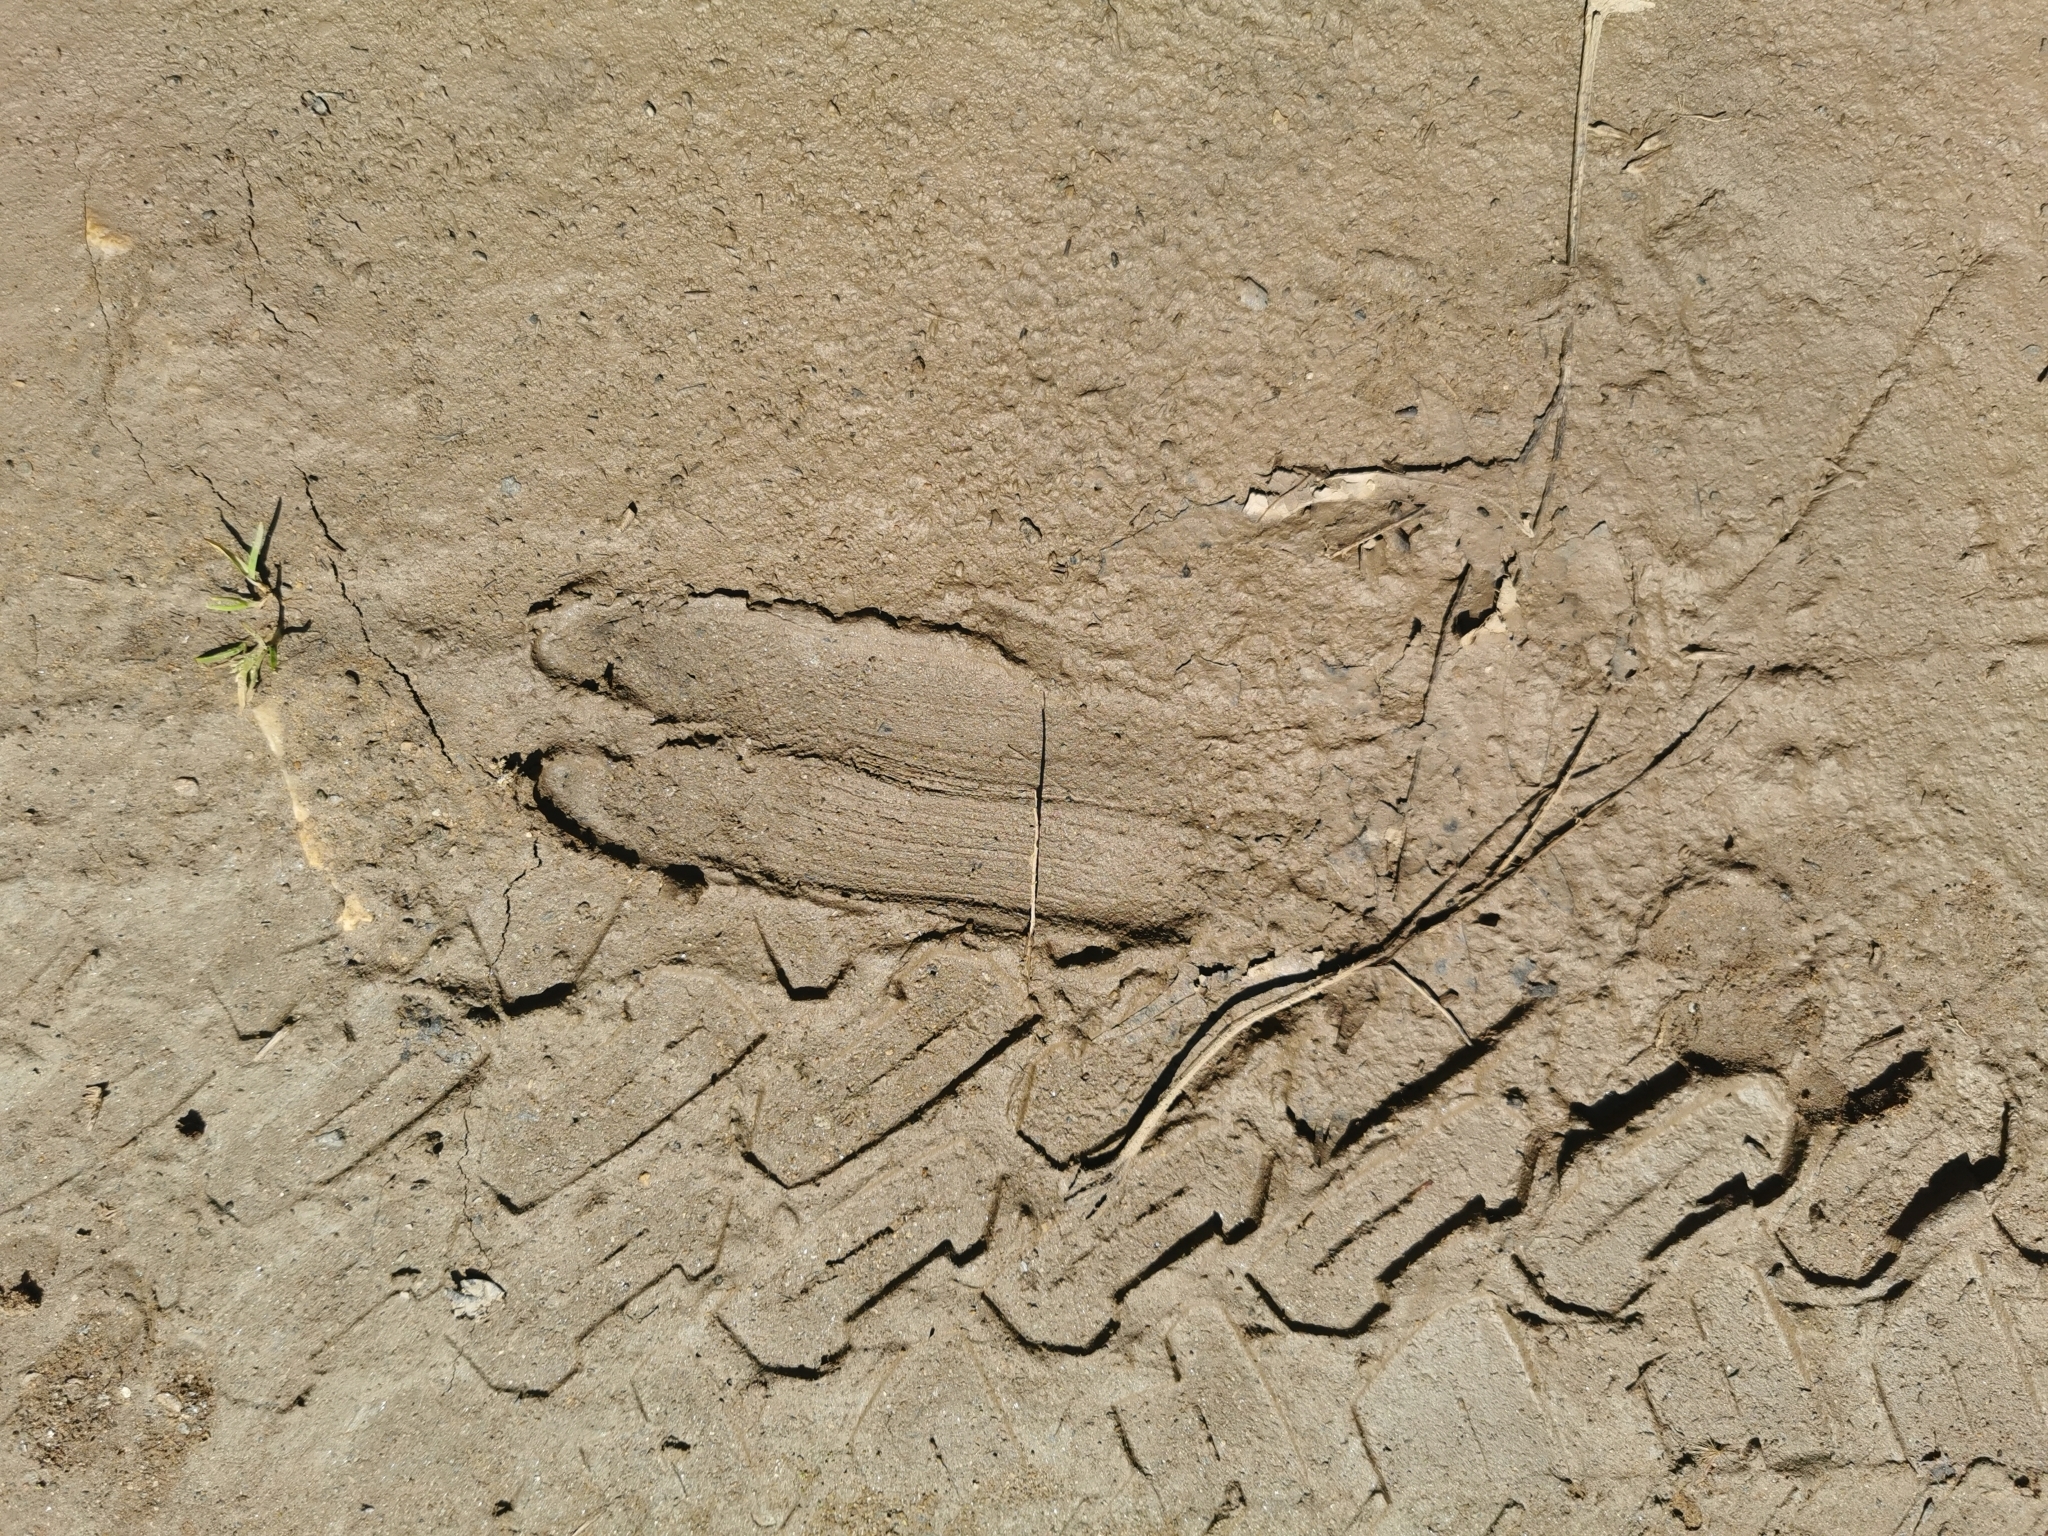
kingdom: Animalia
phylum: Chordata
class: Mammalia
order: Artiodactyla
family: Cervidae
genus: Capreolus
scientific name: Capreolus capreolus
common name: Western roe deer
